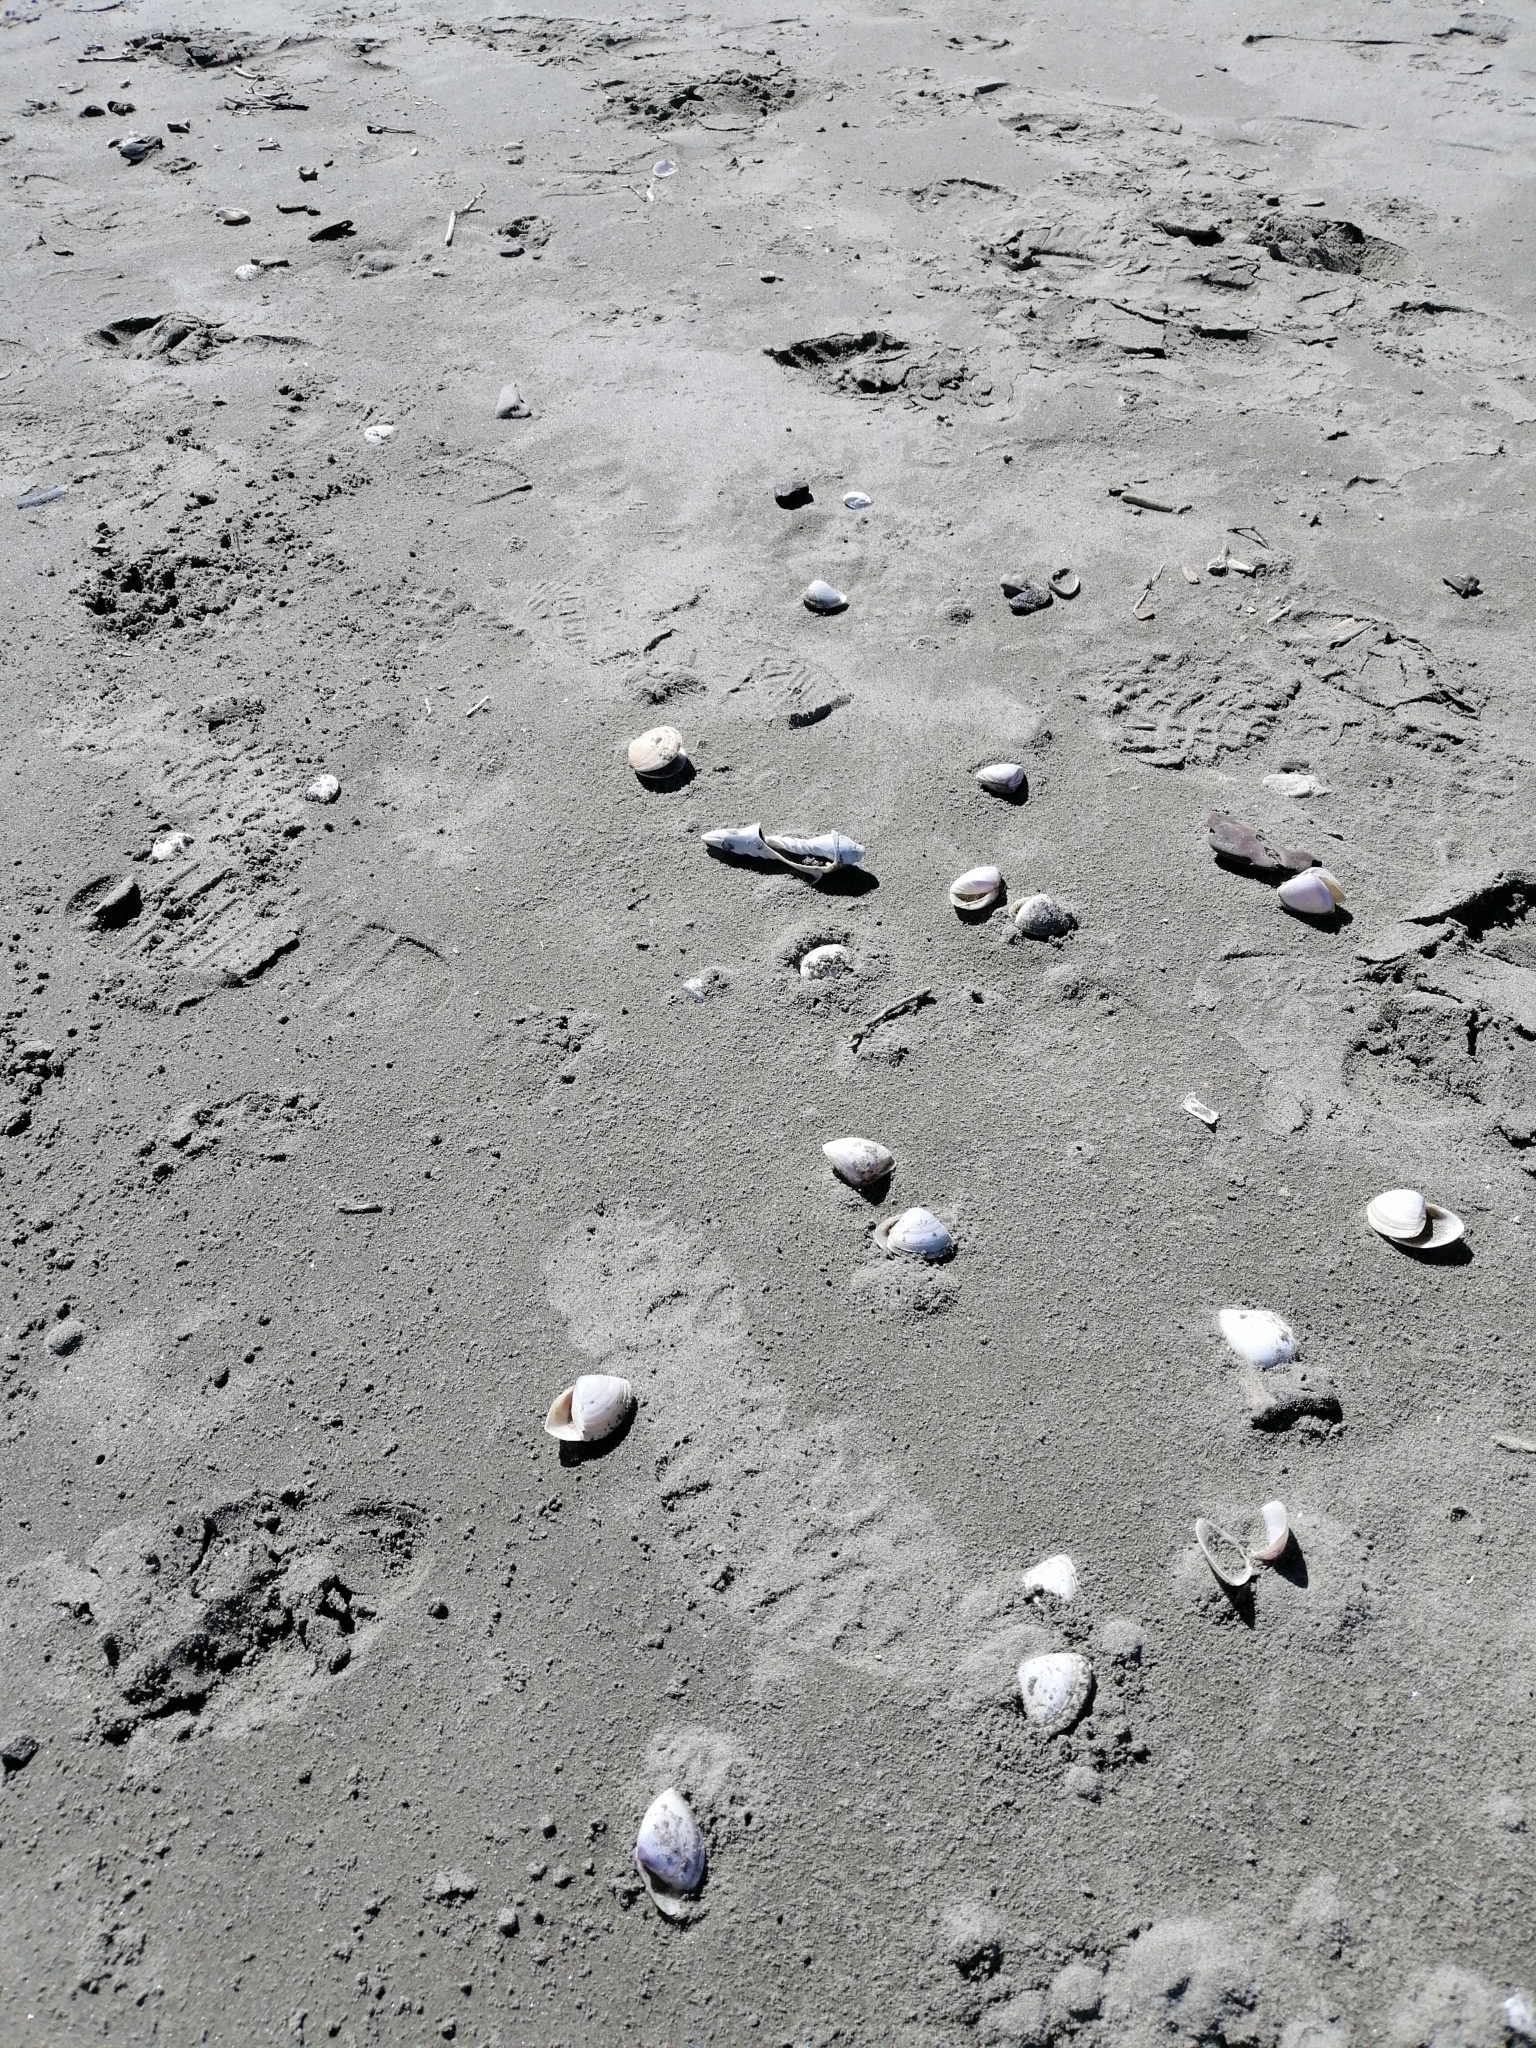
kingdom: Animalia
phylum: Mollusca
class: Bivalvia
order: Venerida
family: Mactridae
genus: Crassula
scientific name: Crassula aequilatera
